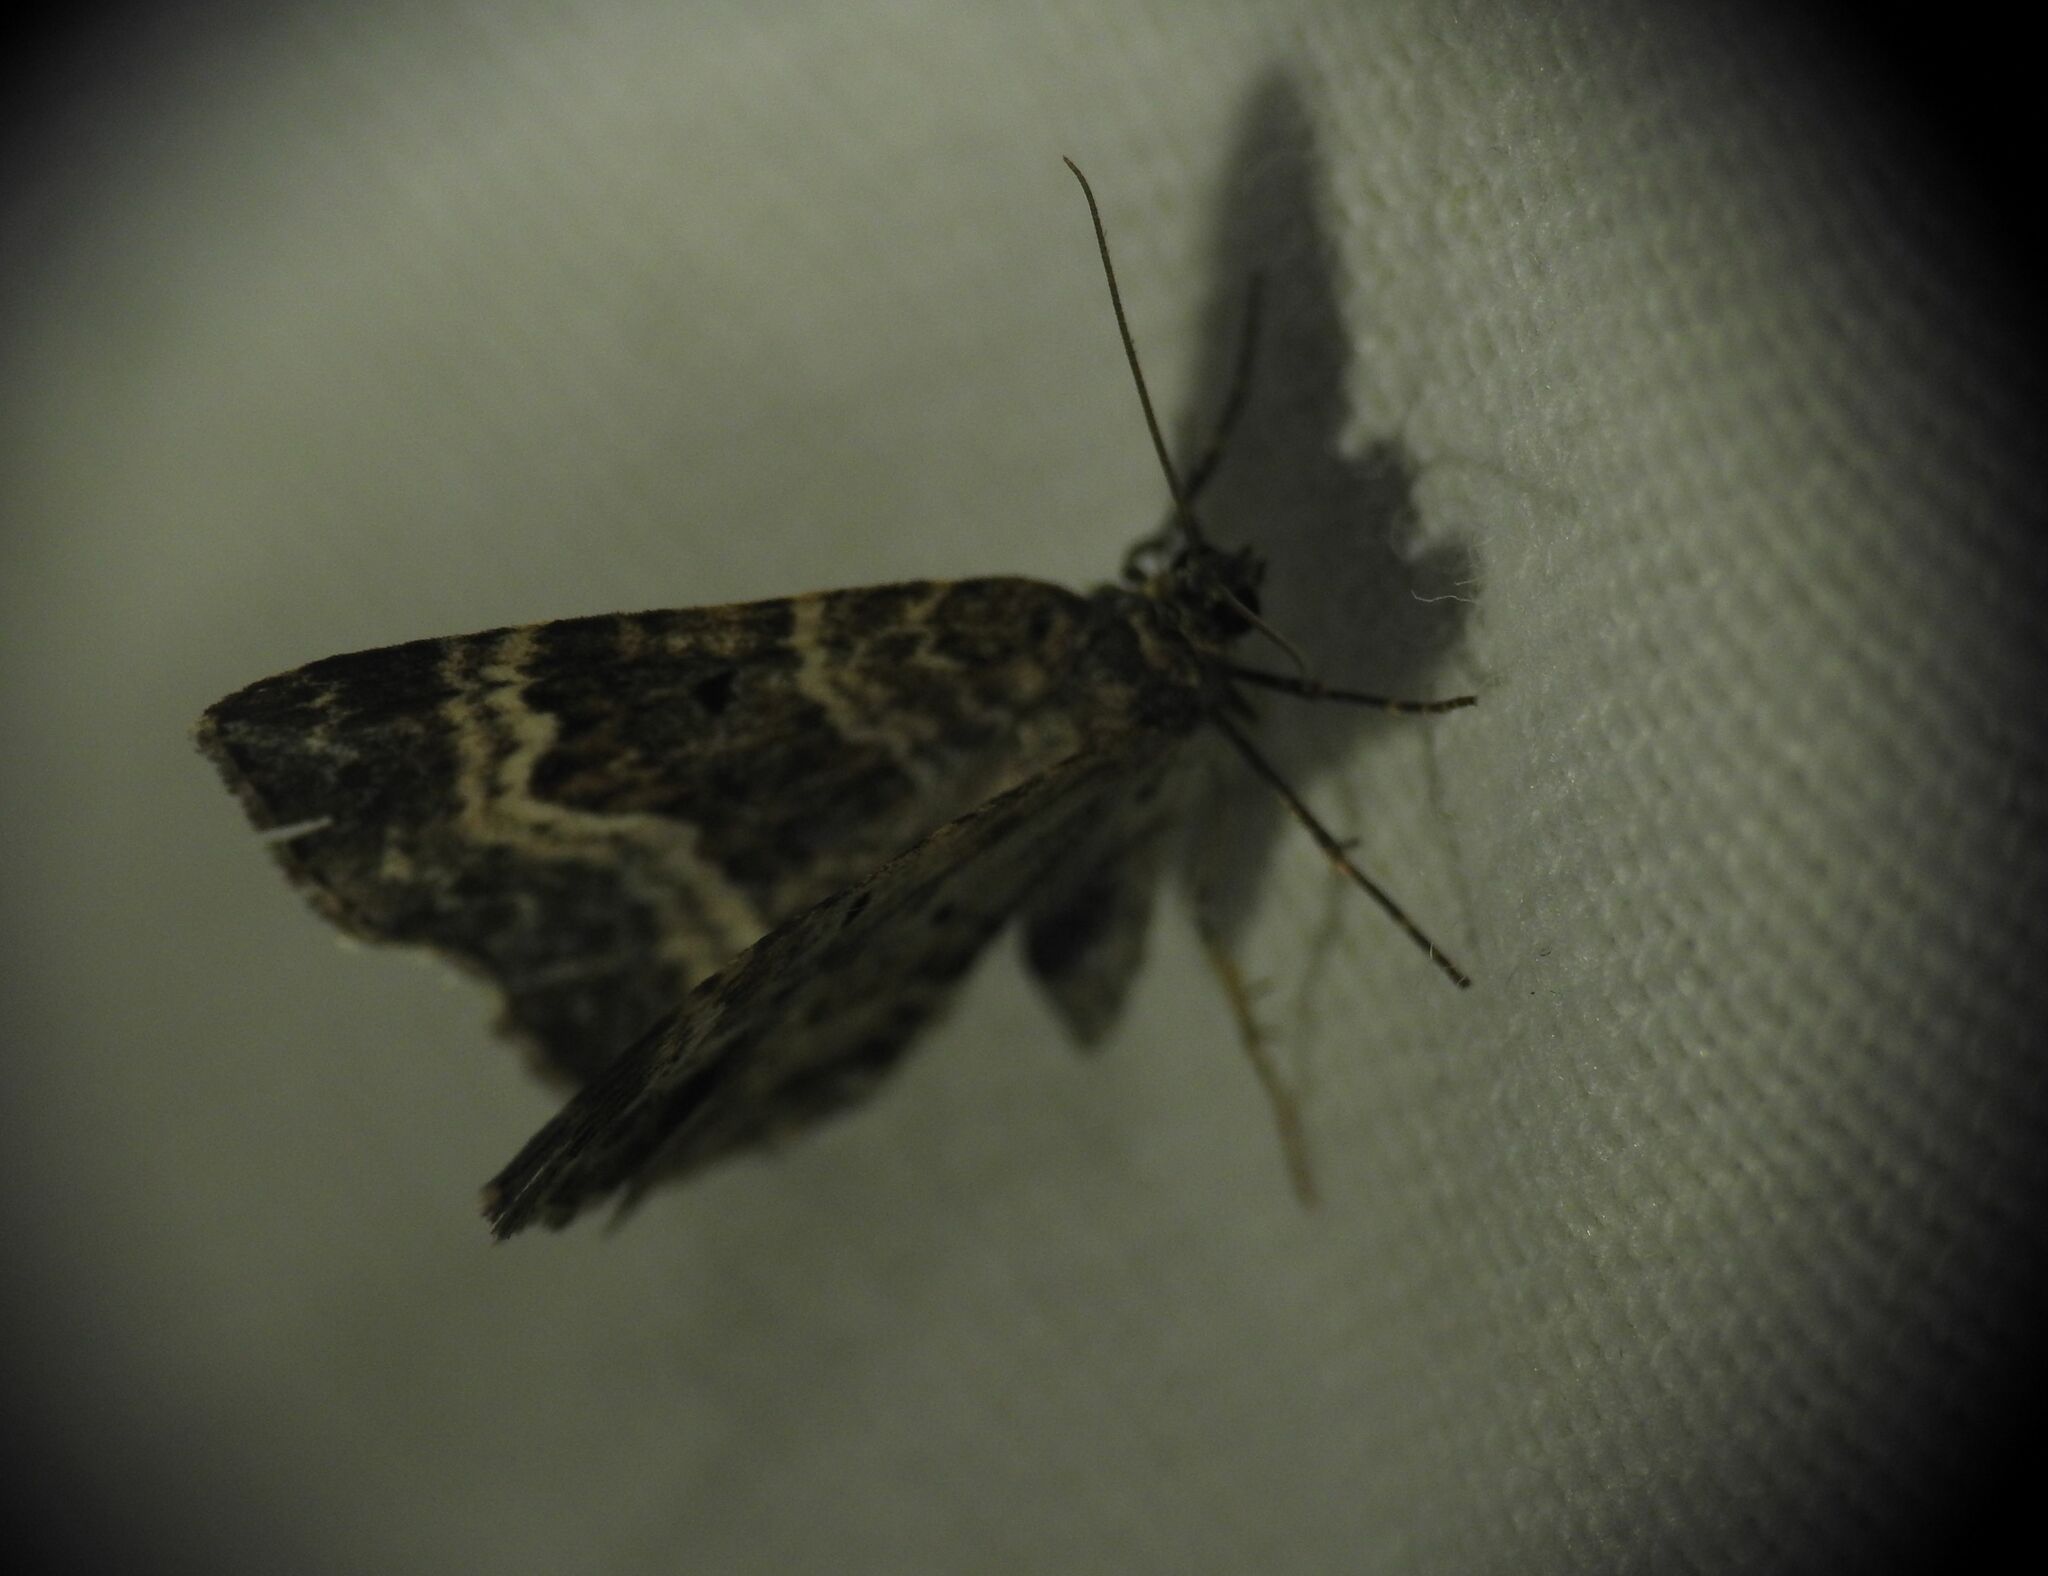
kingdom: Animalia
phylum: Arthropoda
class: Insecta
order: Lepidoptera
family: Geometridae
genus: Epirrhoe
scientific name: Epirrhoe alternata
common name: Common carpet
